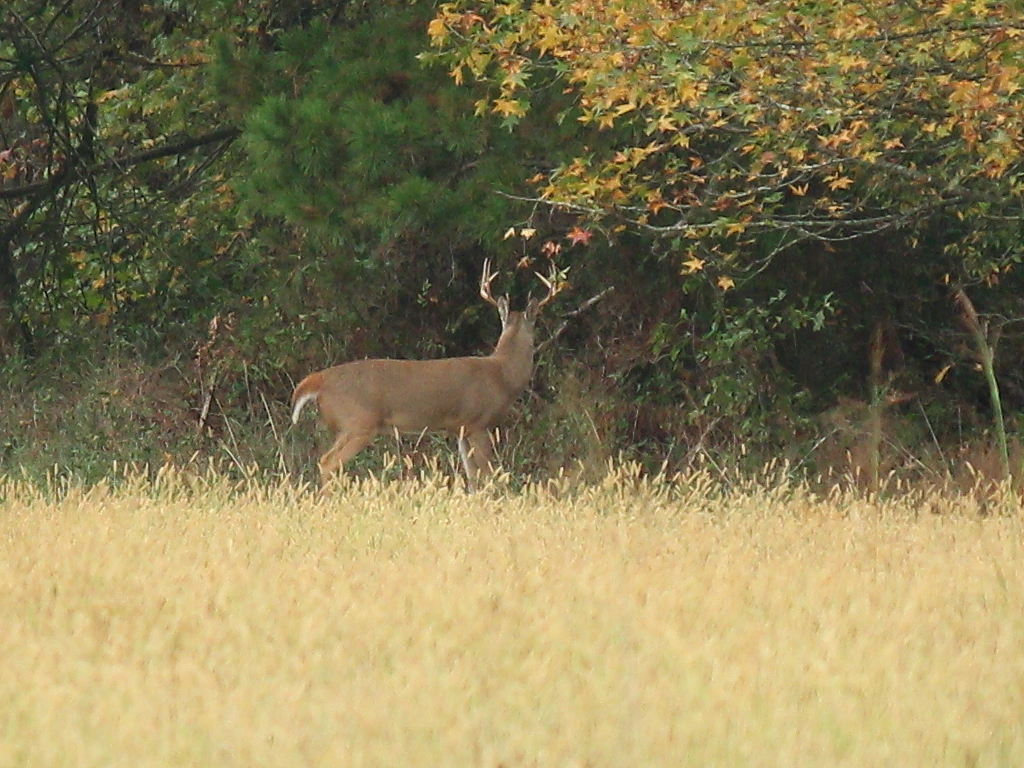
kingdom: Animalia
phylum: Chordata
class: Mammalia
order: Artiodactyla
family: Cervidae
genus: Odocoileus
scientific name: Odocoileus virginianus
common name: White-tailed deer
